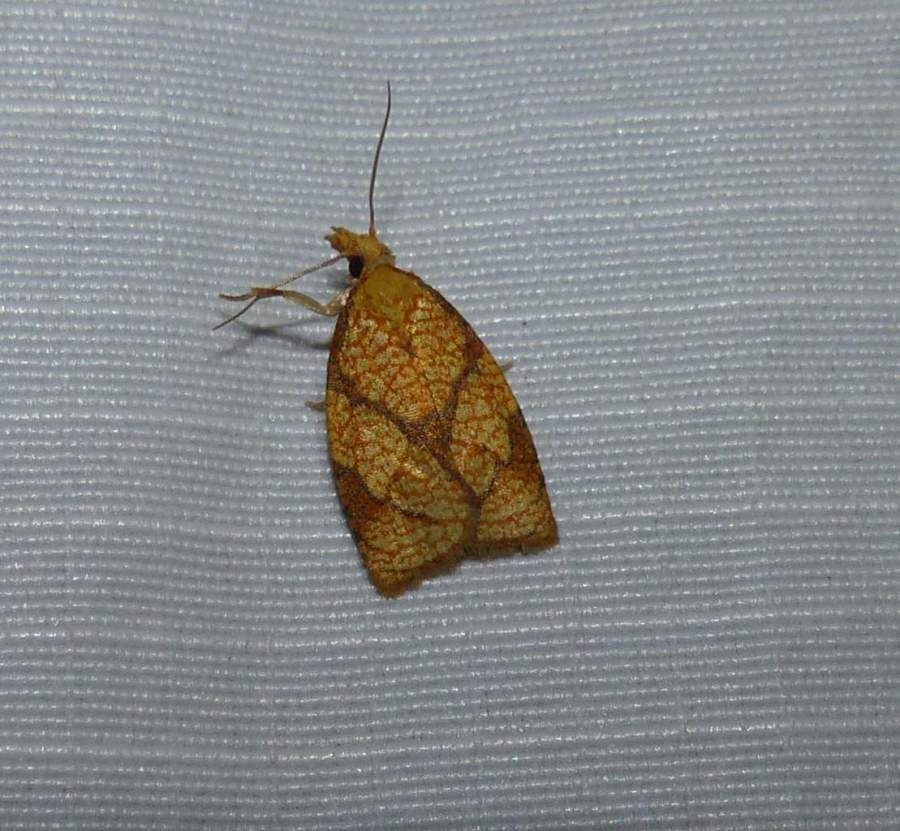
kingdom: Animalia
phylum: Arthropoda
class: Insecta
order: Lepidoptera
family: Tortricidae
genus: Cenopis
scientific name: Cenopis reticulatana
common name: Reticulated fruitworm moth
